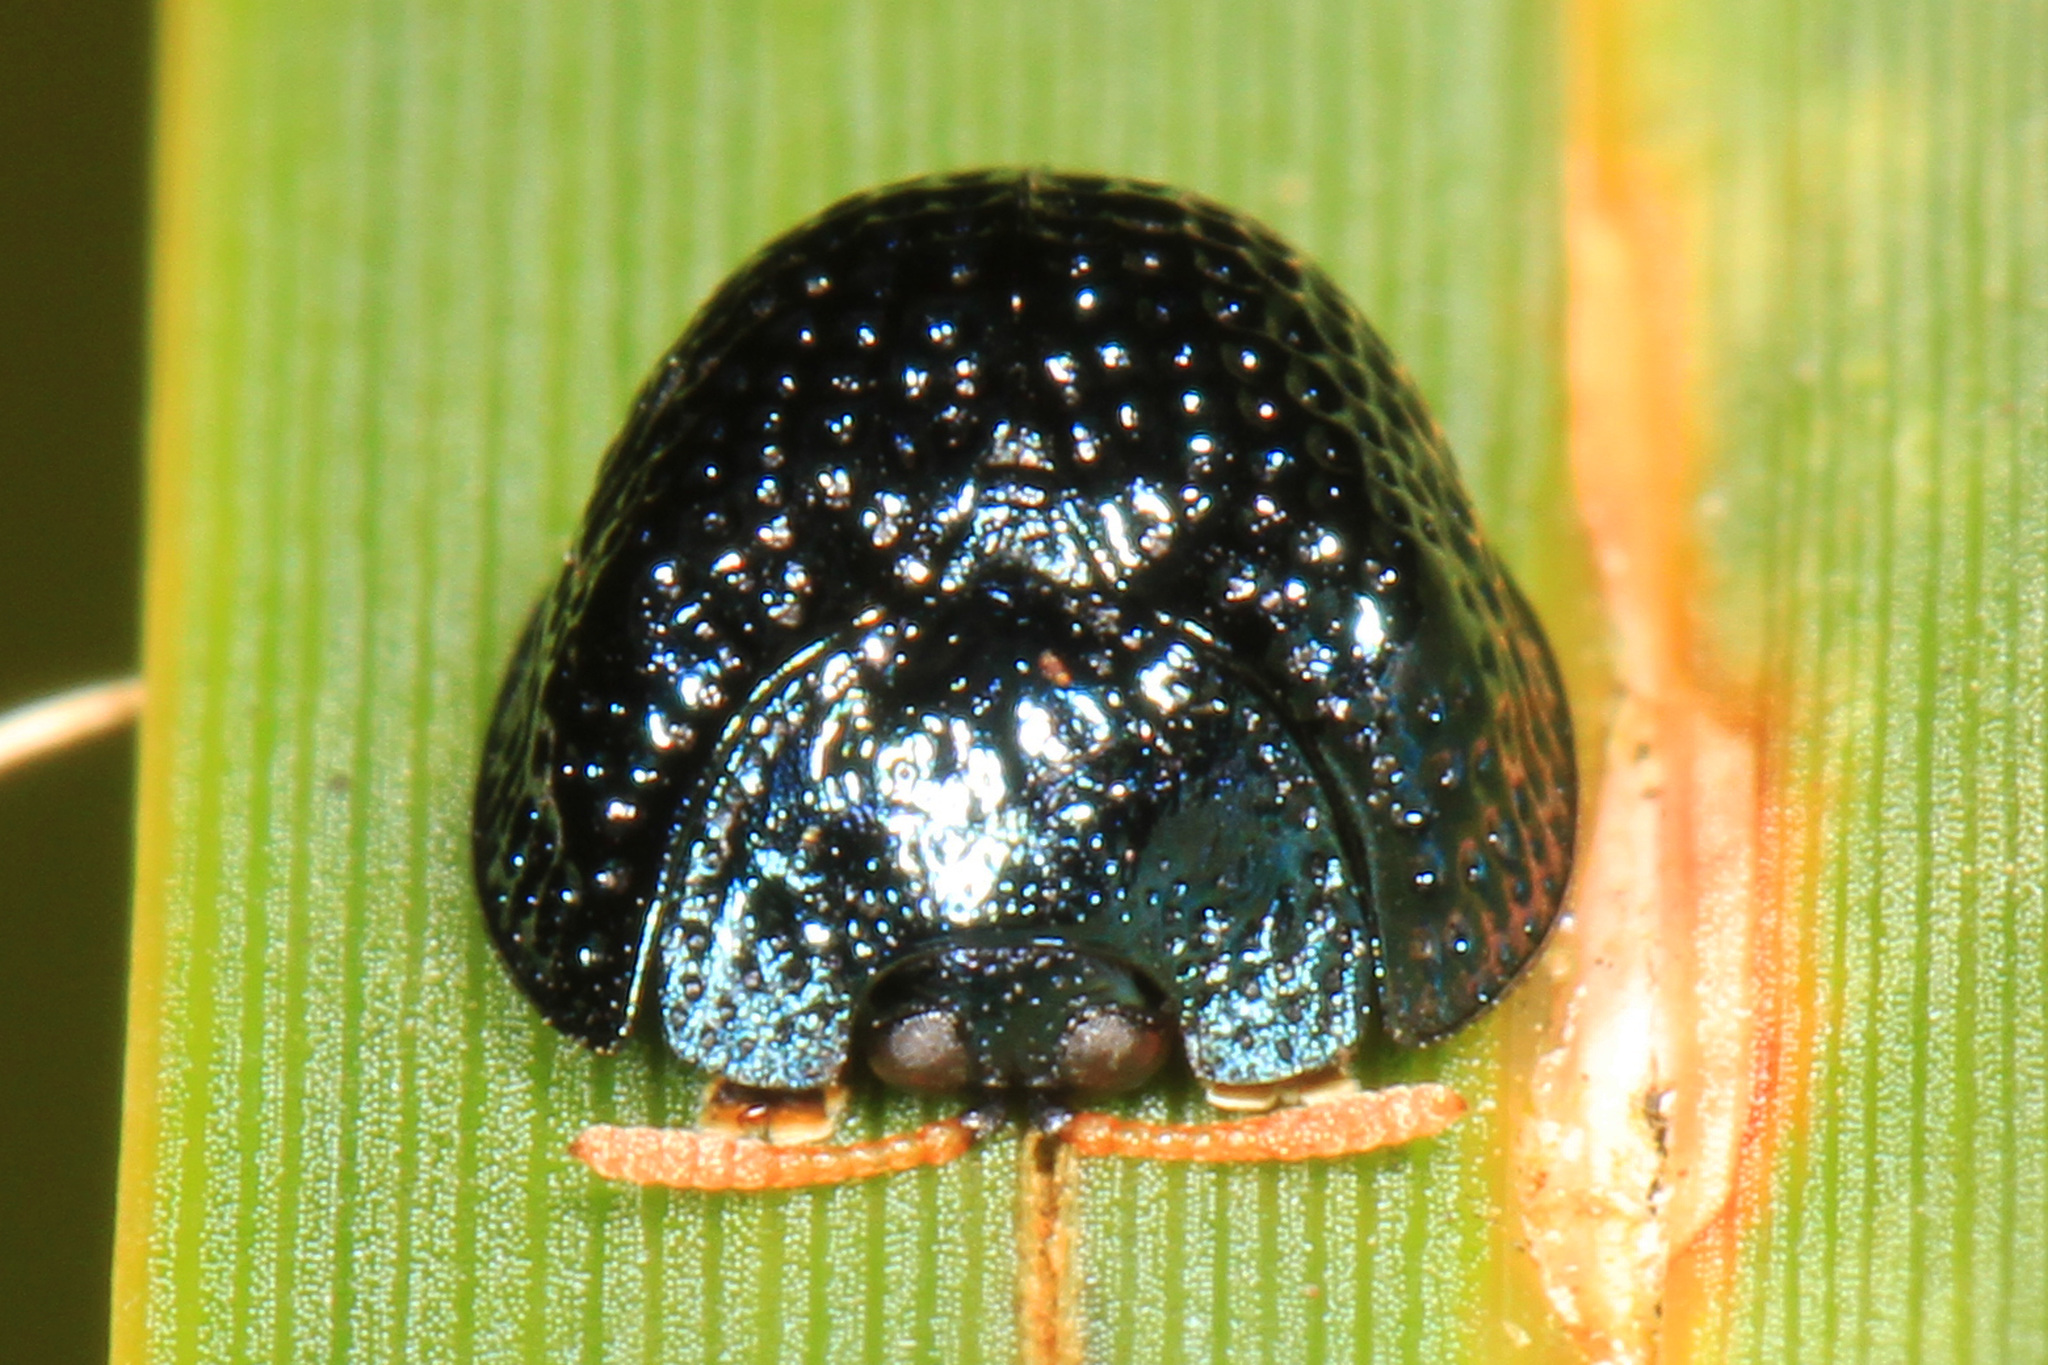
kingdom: Animalia
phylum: Arthropoda
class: Insecta
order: Coleoptera
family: Chrysomelidae
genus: Hemisphaerota
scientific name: Hemisphaerota cyanea
